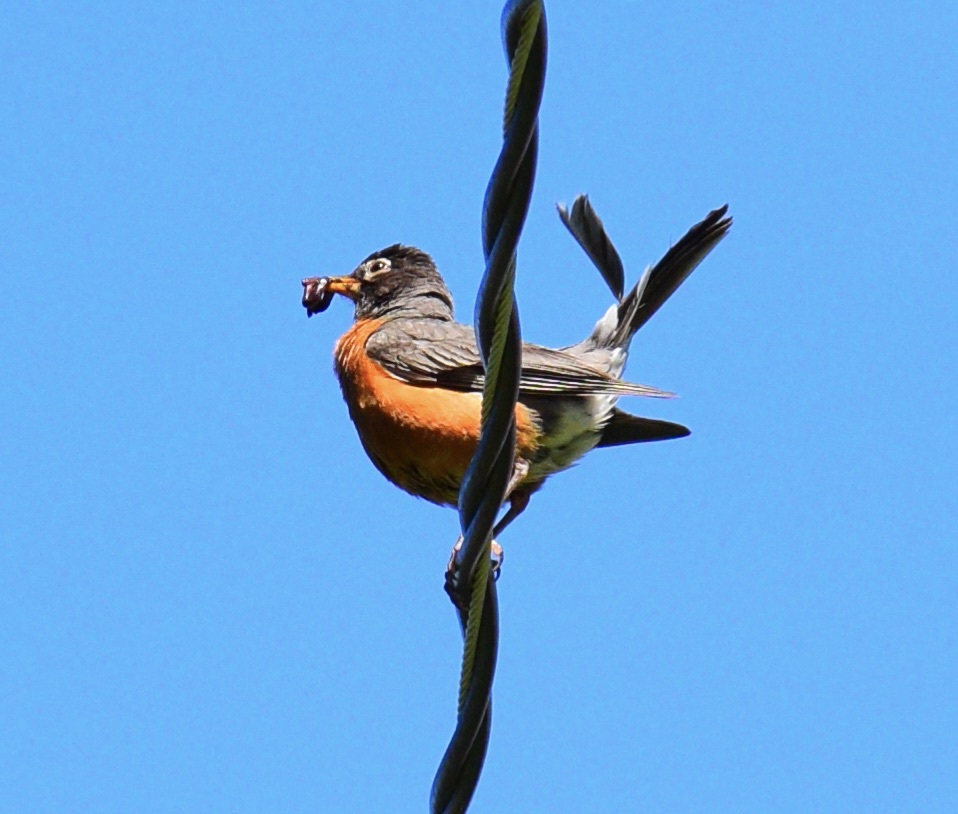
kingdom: Animalia
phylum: Chordata
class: Aves
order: Passeriformes
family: Turdidae
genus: Turdus
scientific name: Turdus migratorius
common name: American robin
